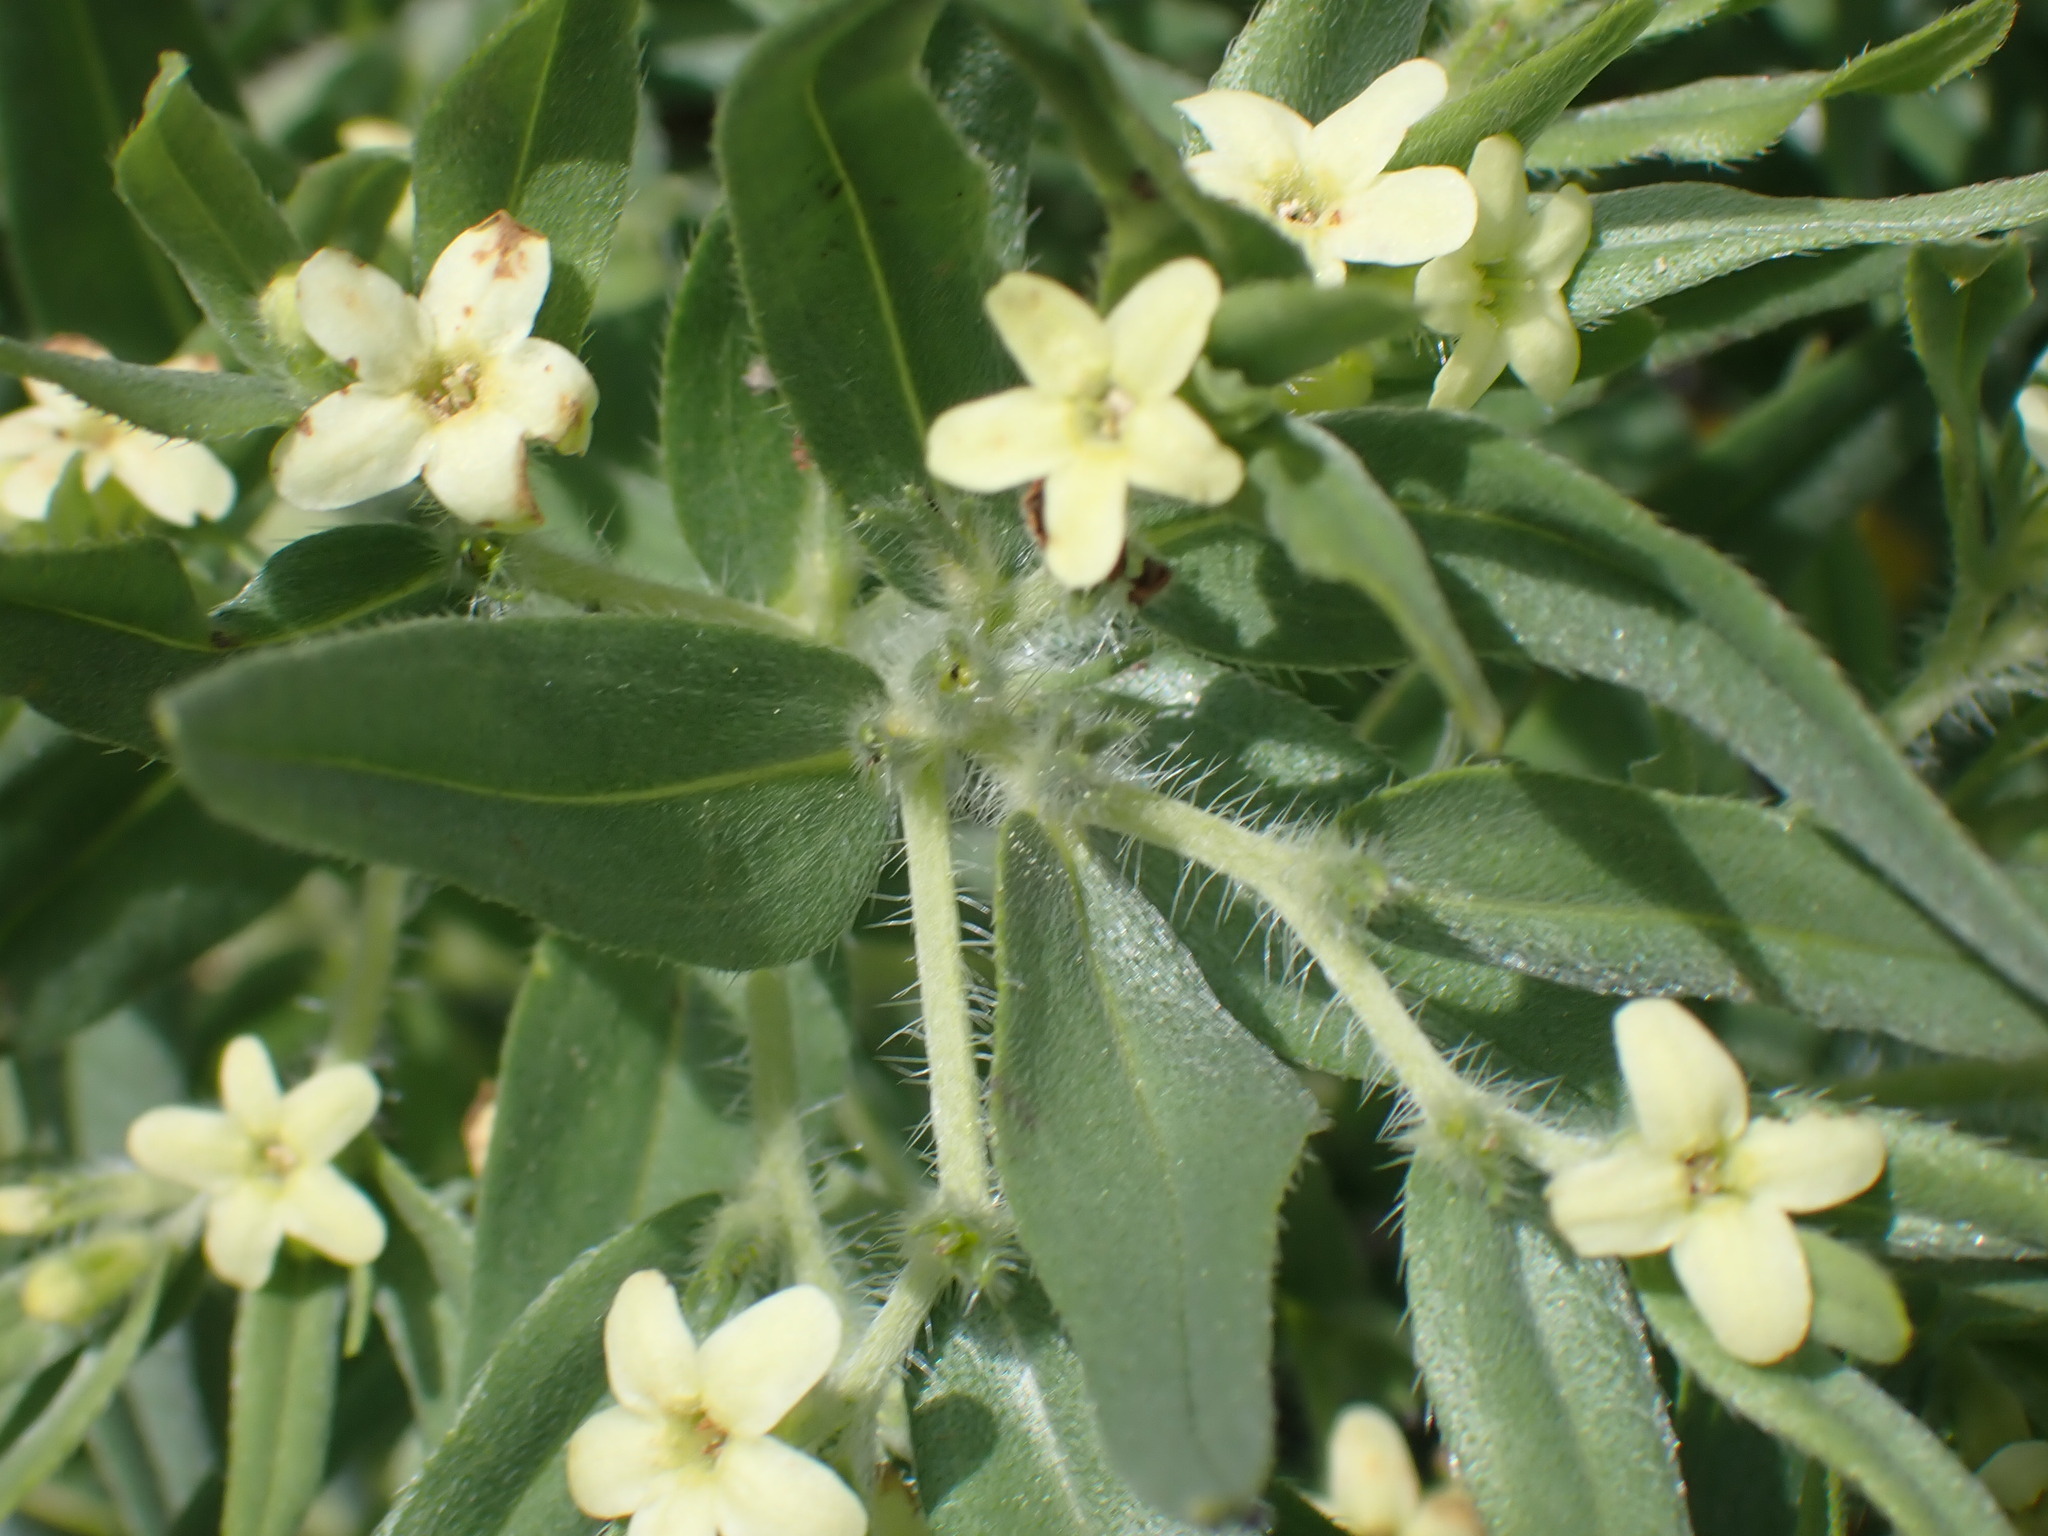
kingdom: Plantae
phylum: Tracheophyta
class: Magnoliopsida
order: Boraginales
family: Boraginaceae
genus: Lithospermum
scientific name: Lithospermum ruderale
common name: Western gromwell
